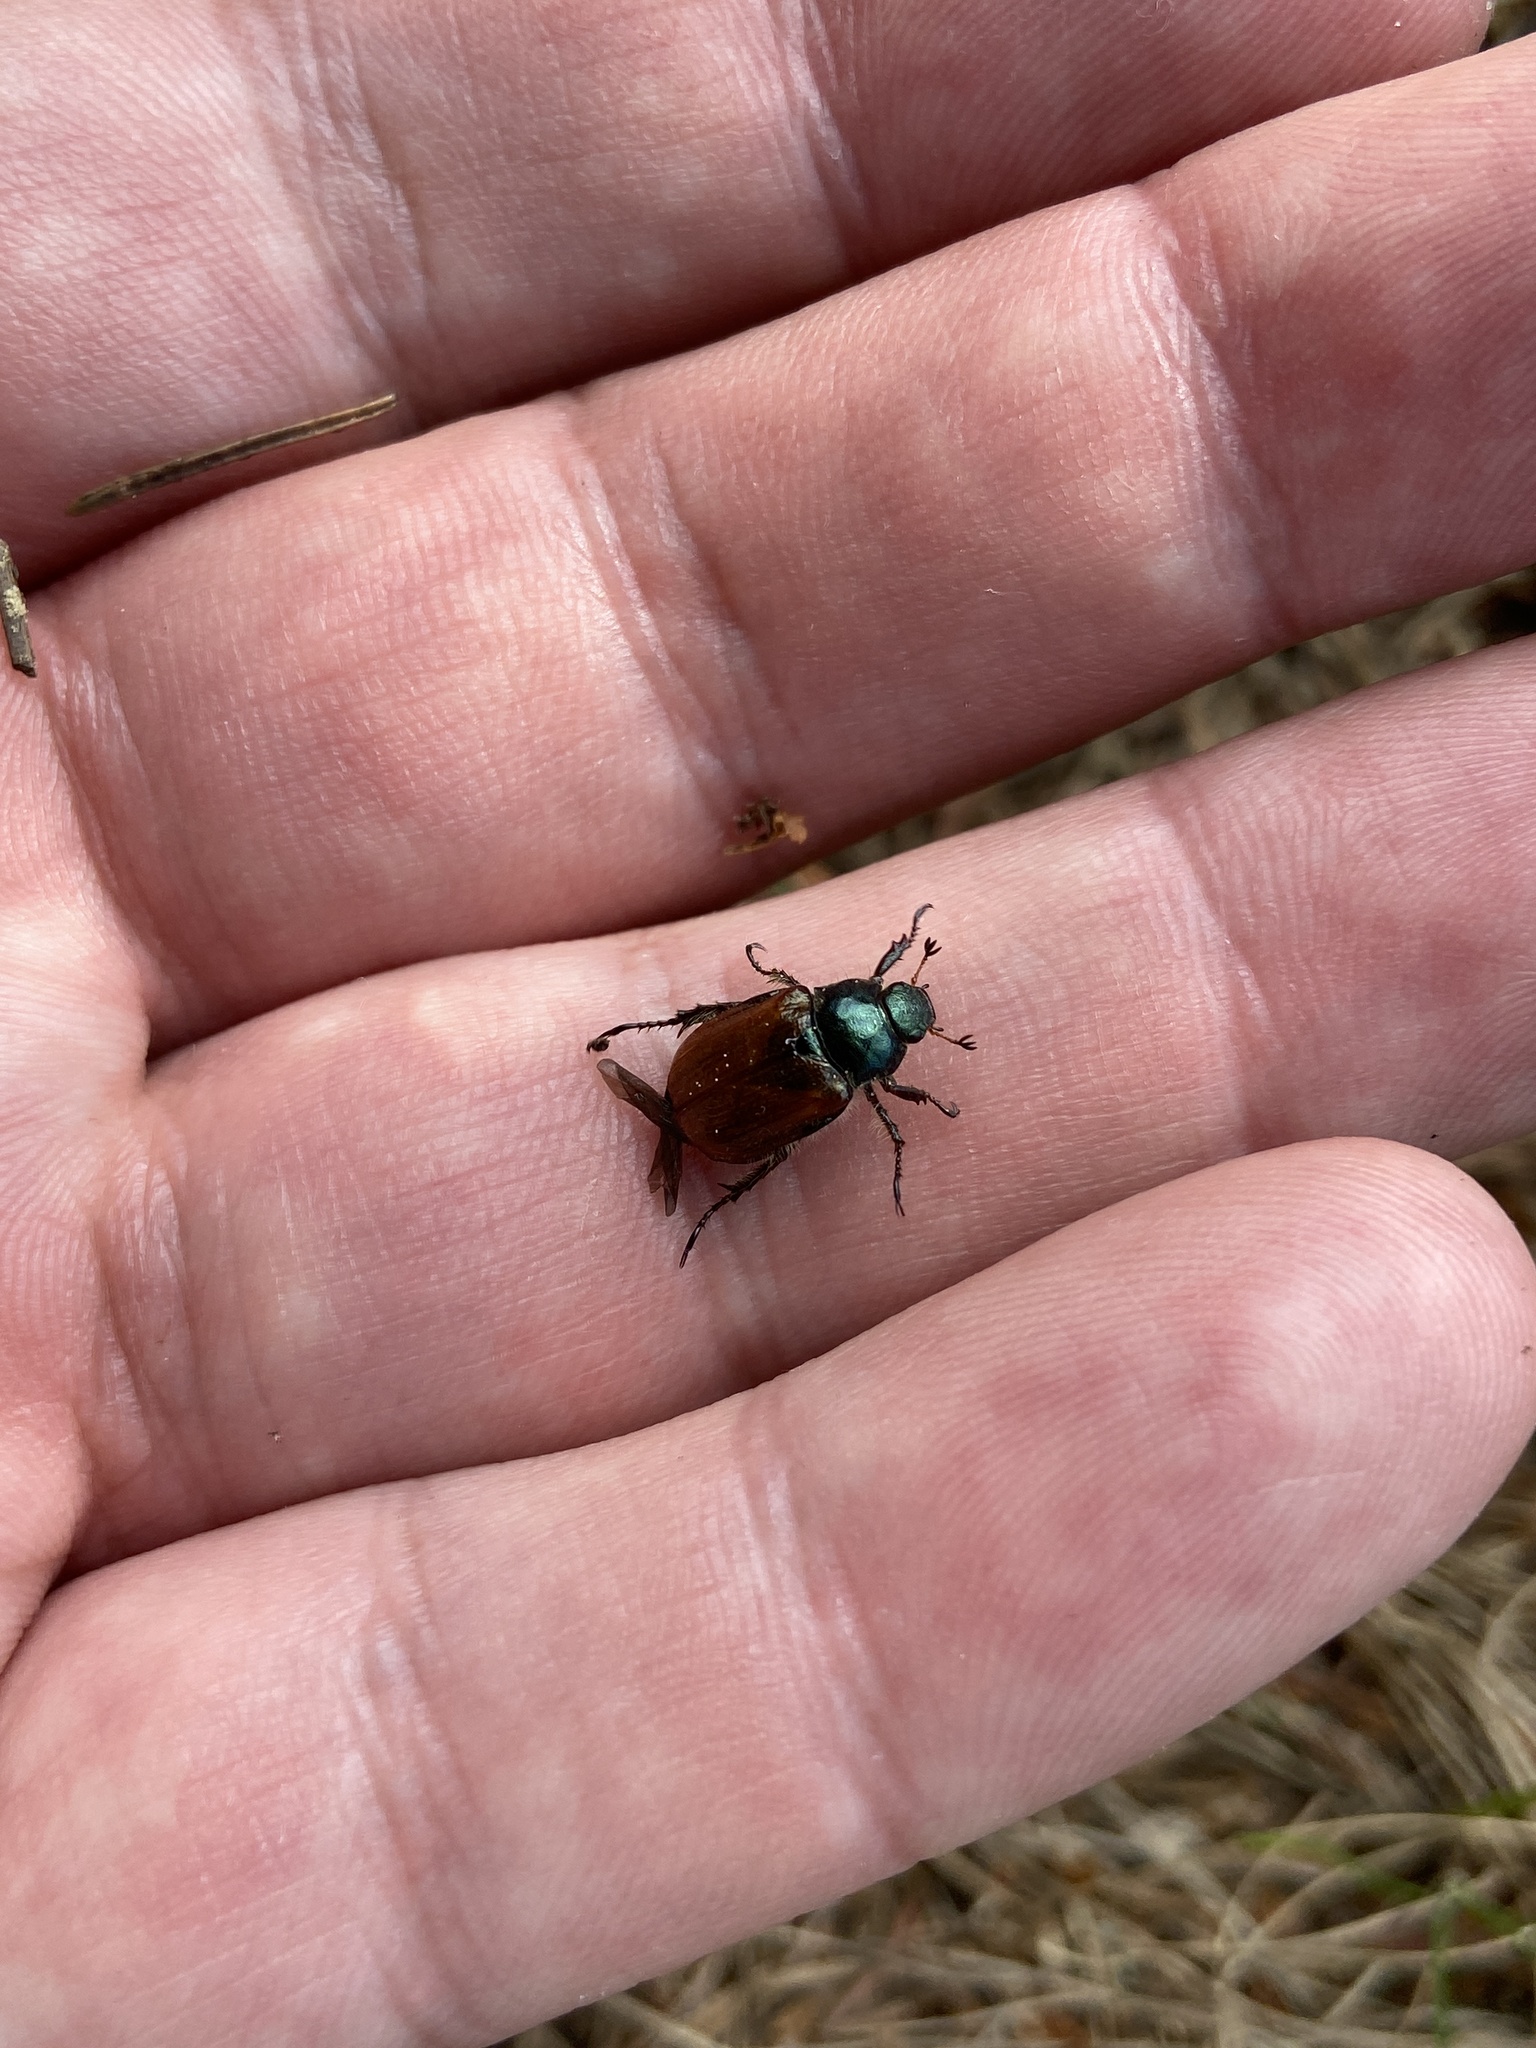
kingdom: Animalia
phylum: Arthropoda
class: Insecta
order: Coleoptera
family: Scarabaeidae
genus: Phyllopertha
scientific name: Phyllopertha horticola
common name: Garden chafer
